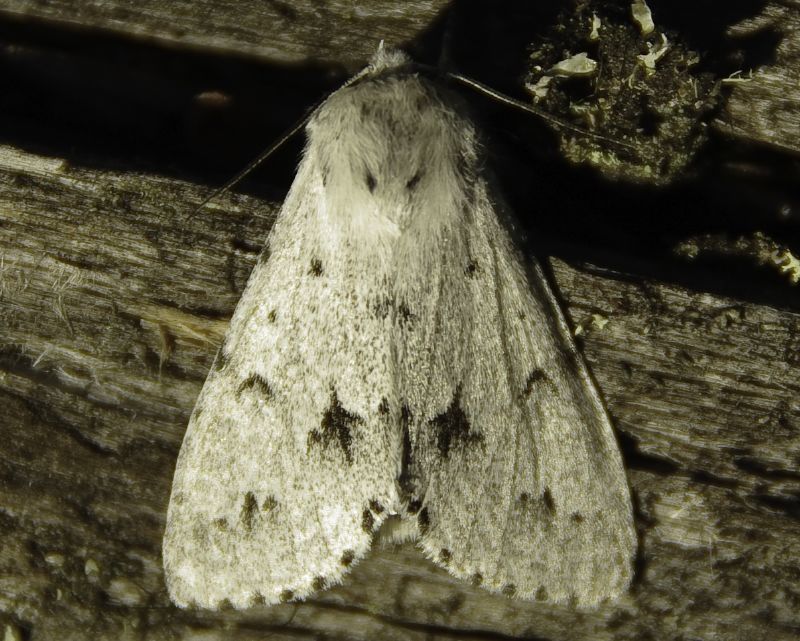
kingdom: Animalia
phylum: Arthropoda
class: Insecta
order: Lepidoptera
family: Noctuidae
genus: Acronicta
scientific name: Acronicta lepusculina
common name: Cottonwood dagger
